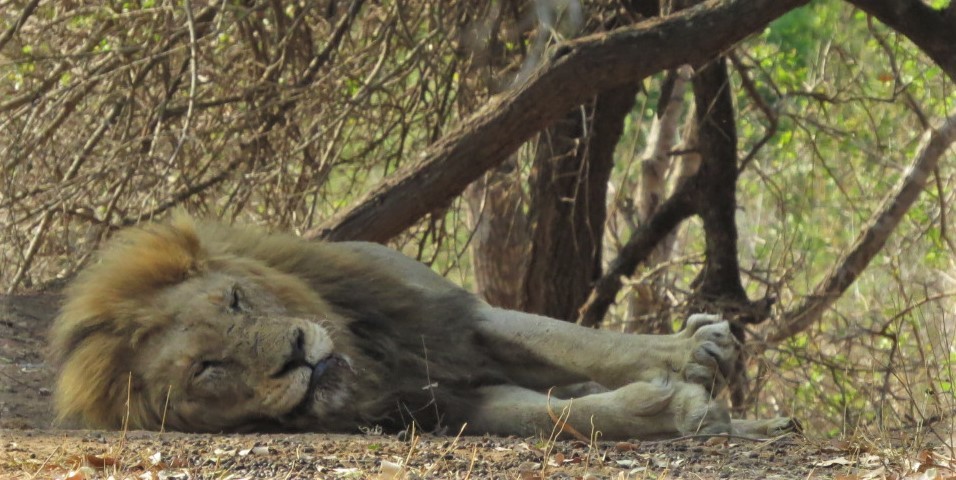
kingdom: Animalia
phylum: Chordata
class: Mammalia
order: Carnivora
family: Felidae
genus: Panthera
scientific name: Panthera leo
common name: Lion
